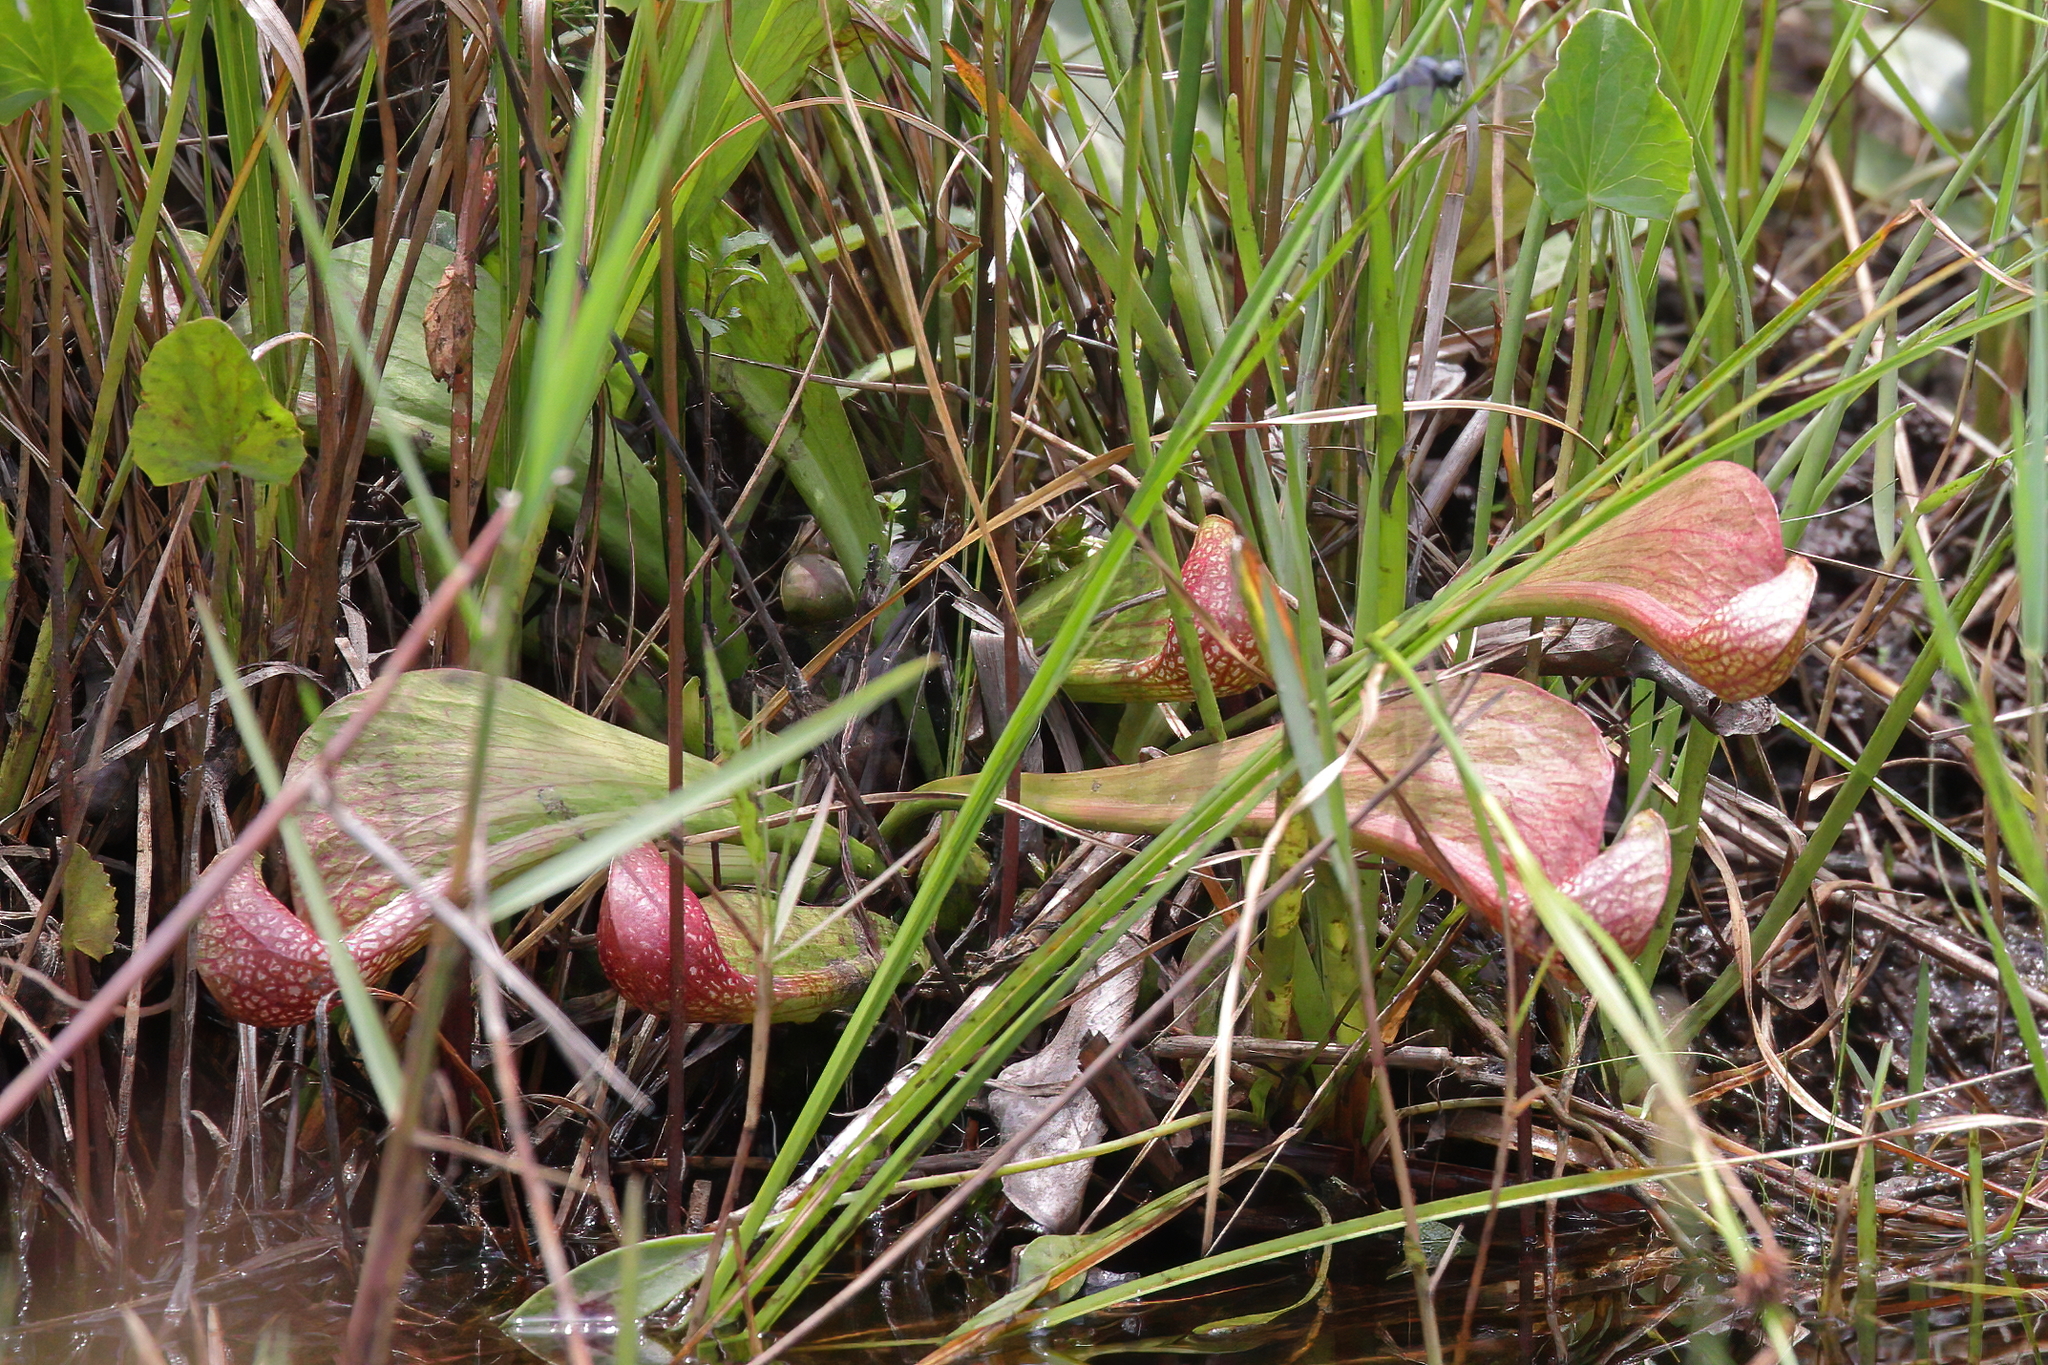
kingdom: Plantae
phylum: Tracheophyta
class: Magnoliopsida
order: Ericales
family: Sarraceniaceae
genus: Sarracenia
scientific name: Sarracenia psittacina
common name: Parrot pitcherplant
